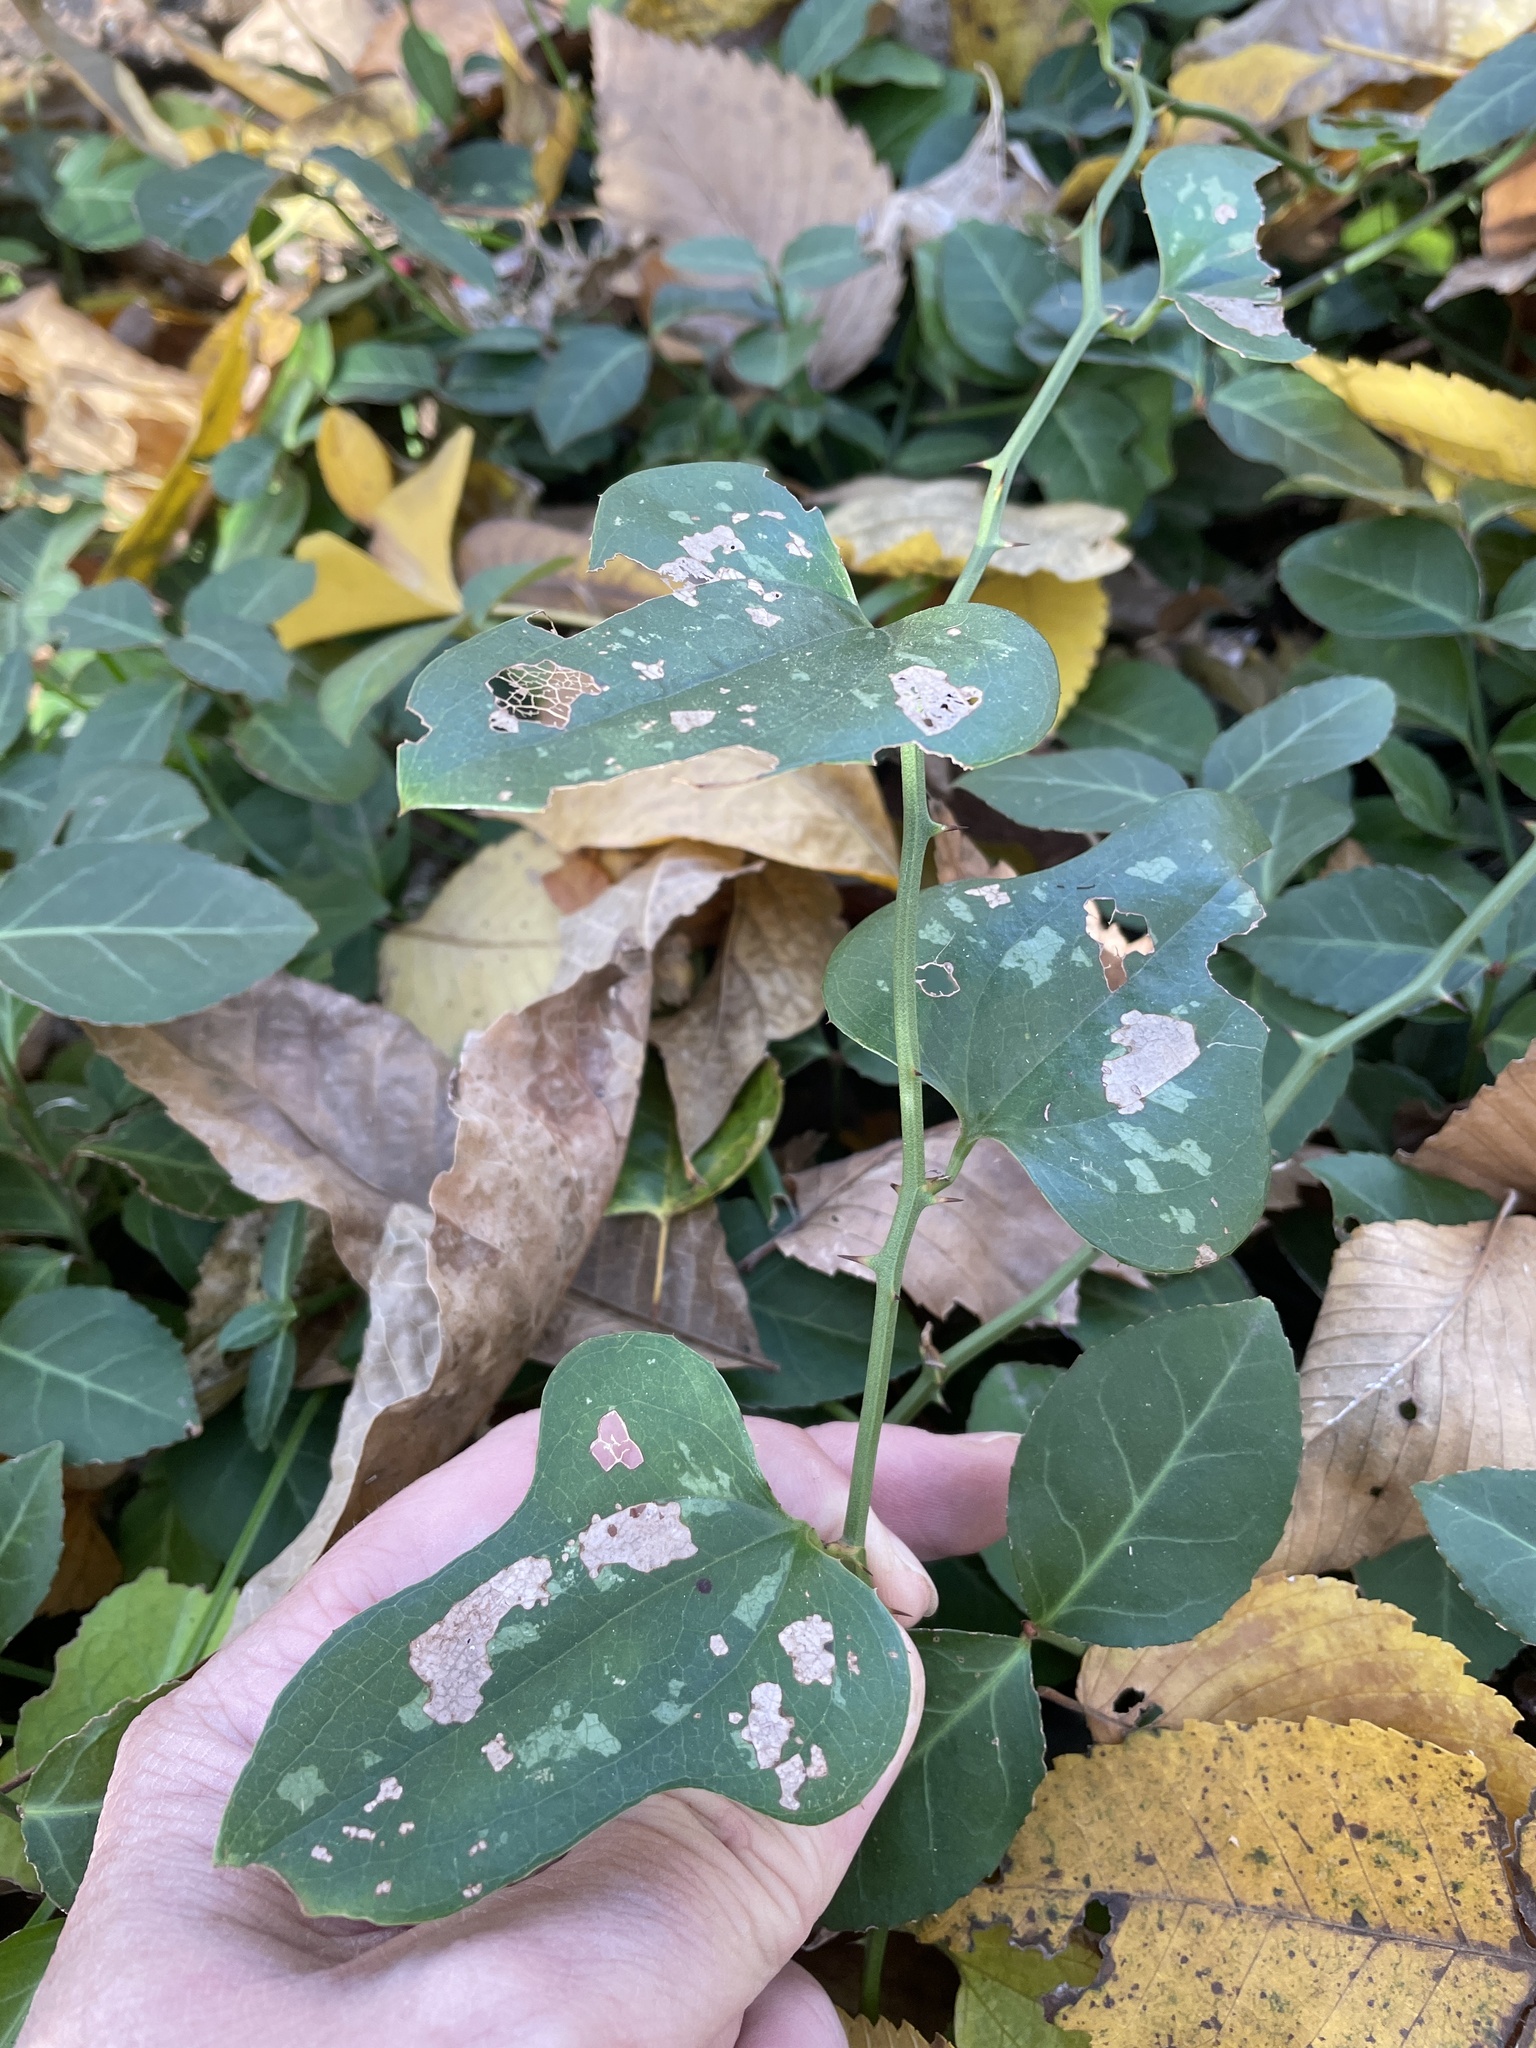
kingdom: Plantae
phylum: Tracheophyta
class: Liliopsida
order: Liliales
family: Smilacaceae
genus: Smilax
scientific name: Smilax bona-nox
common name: Catbrier
